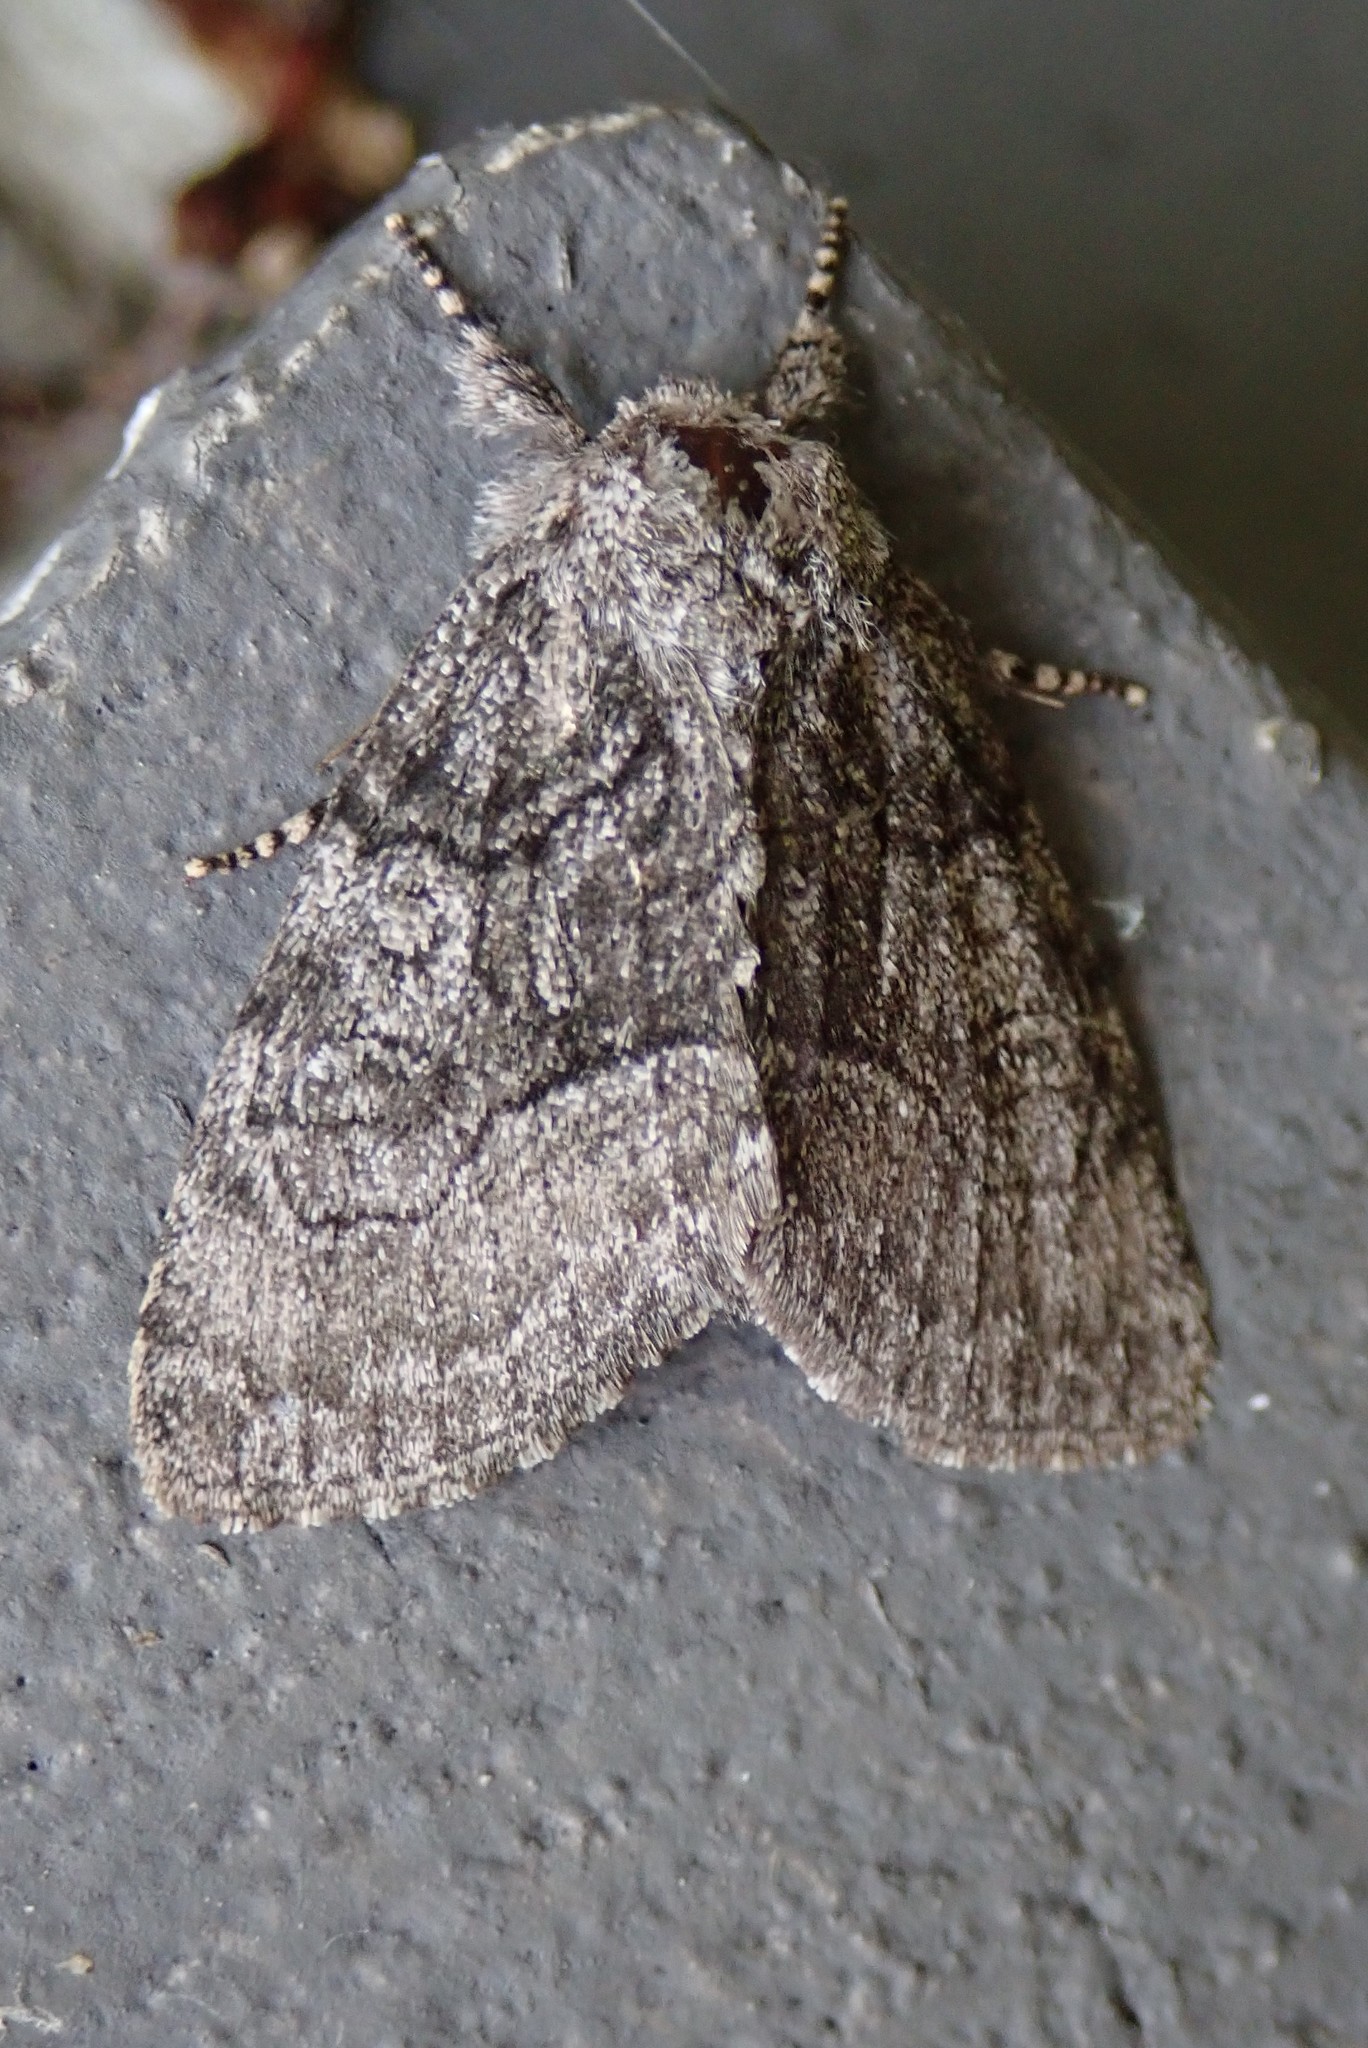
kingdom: Animalia
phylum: Arthropoda
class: Insecta
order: Lepidoptera
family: Noctuidae
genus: Raphia
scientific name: Raphia frater
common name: Brother
